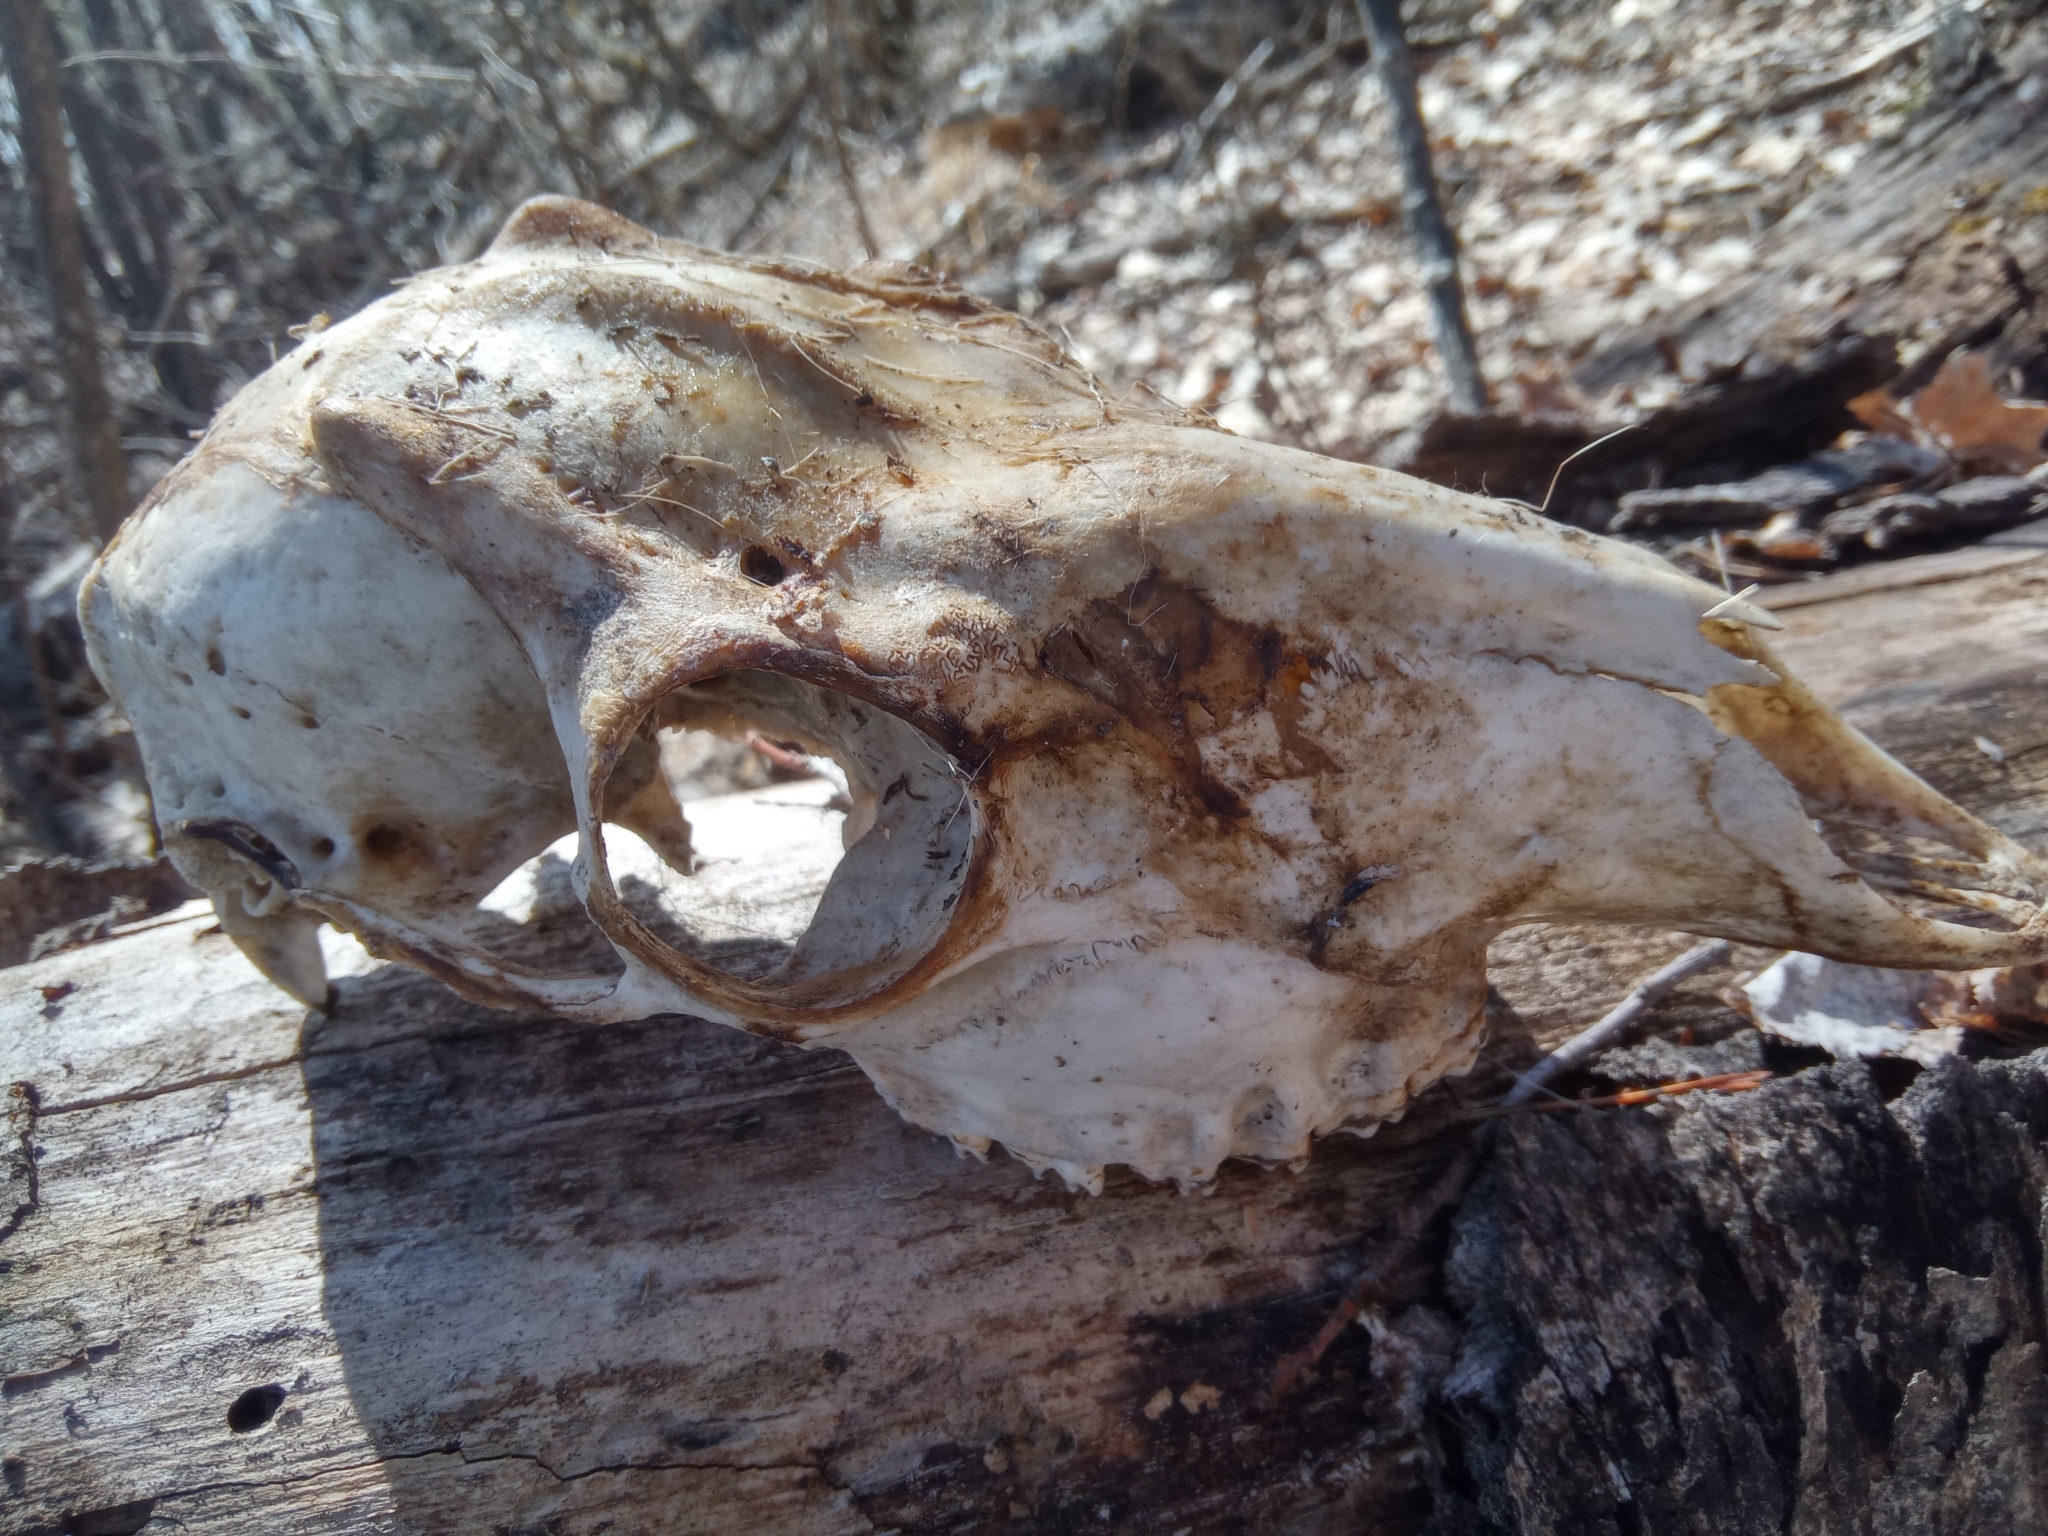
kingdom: Animalia
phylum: Chordata
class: Mammalia
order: Artiodactyla
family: Cervidae
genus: Capreolus
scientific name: Capreolus pygargus
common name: Siberian roe
